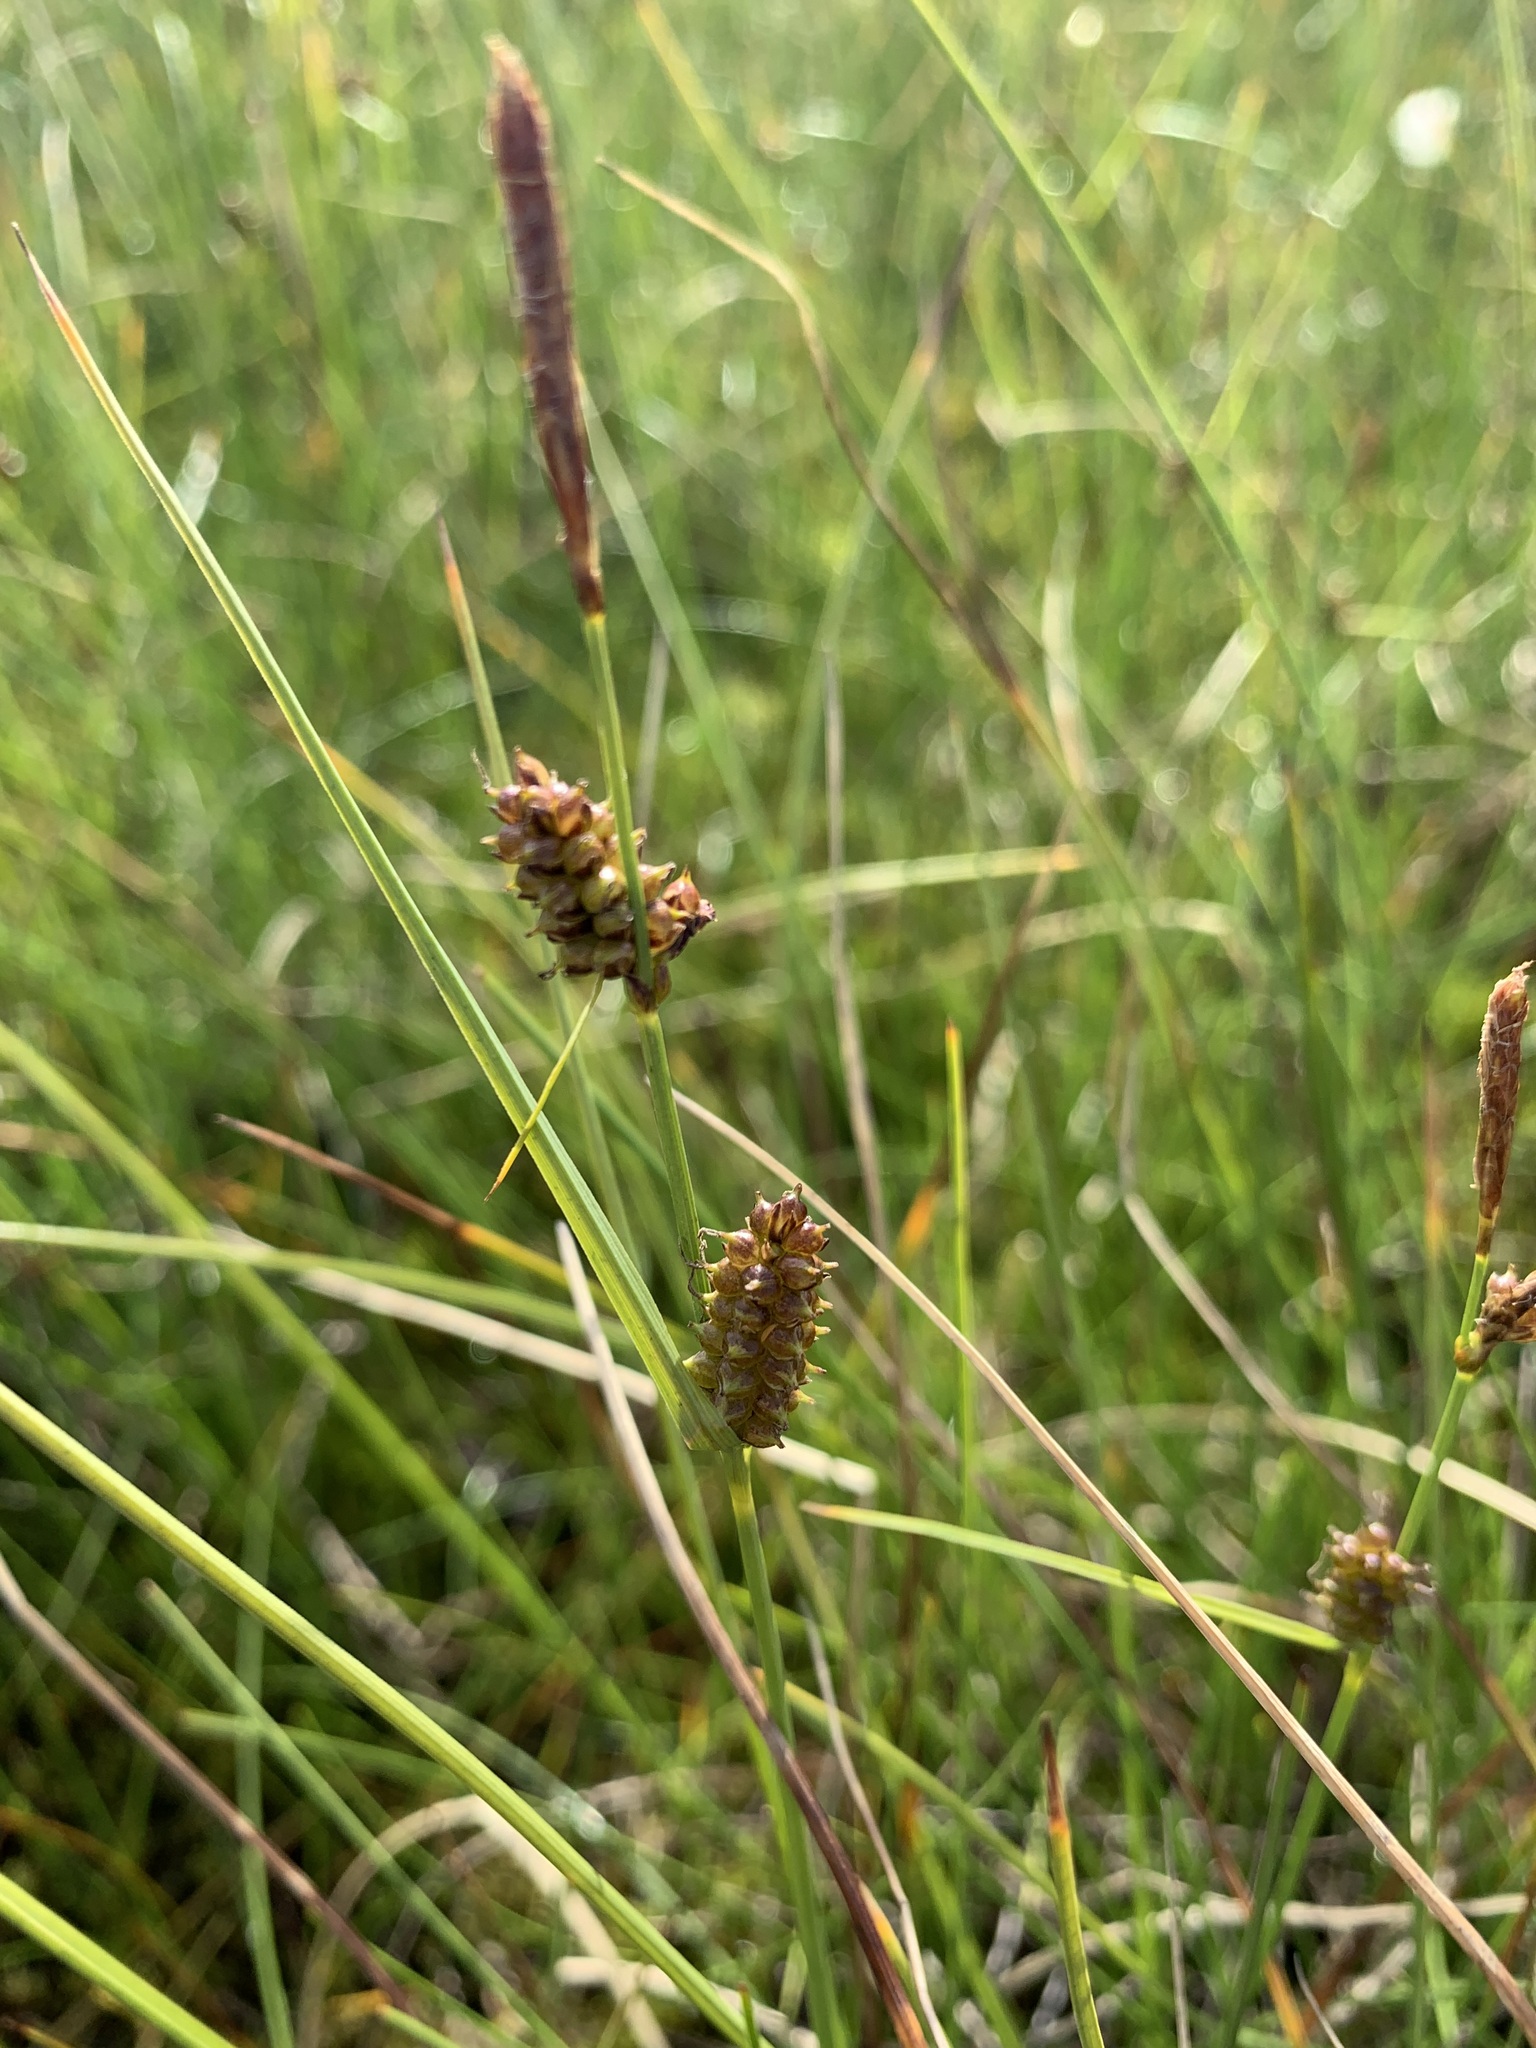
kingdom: Plantae
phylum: Tracheophyta
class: Liliopsida
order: Poales
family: Cyperaceae
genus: Carex
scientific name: Carex rotundata
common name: Round-fruited sedge
